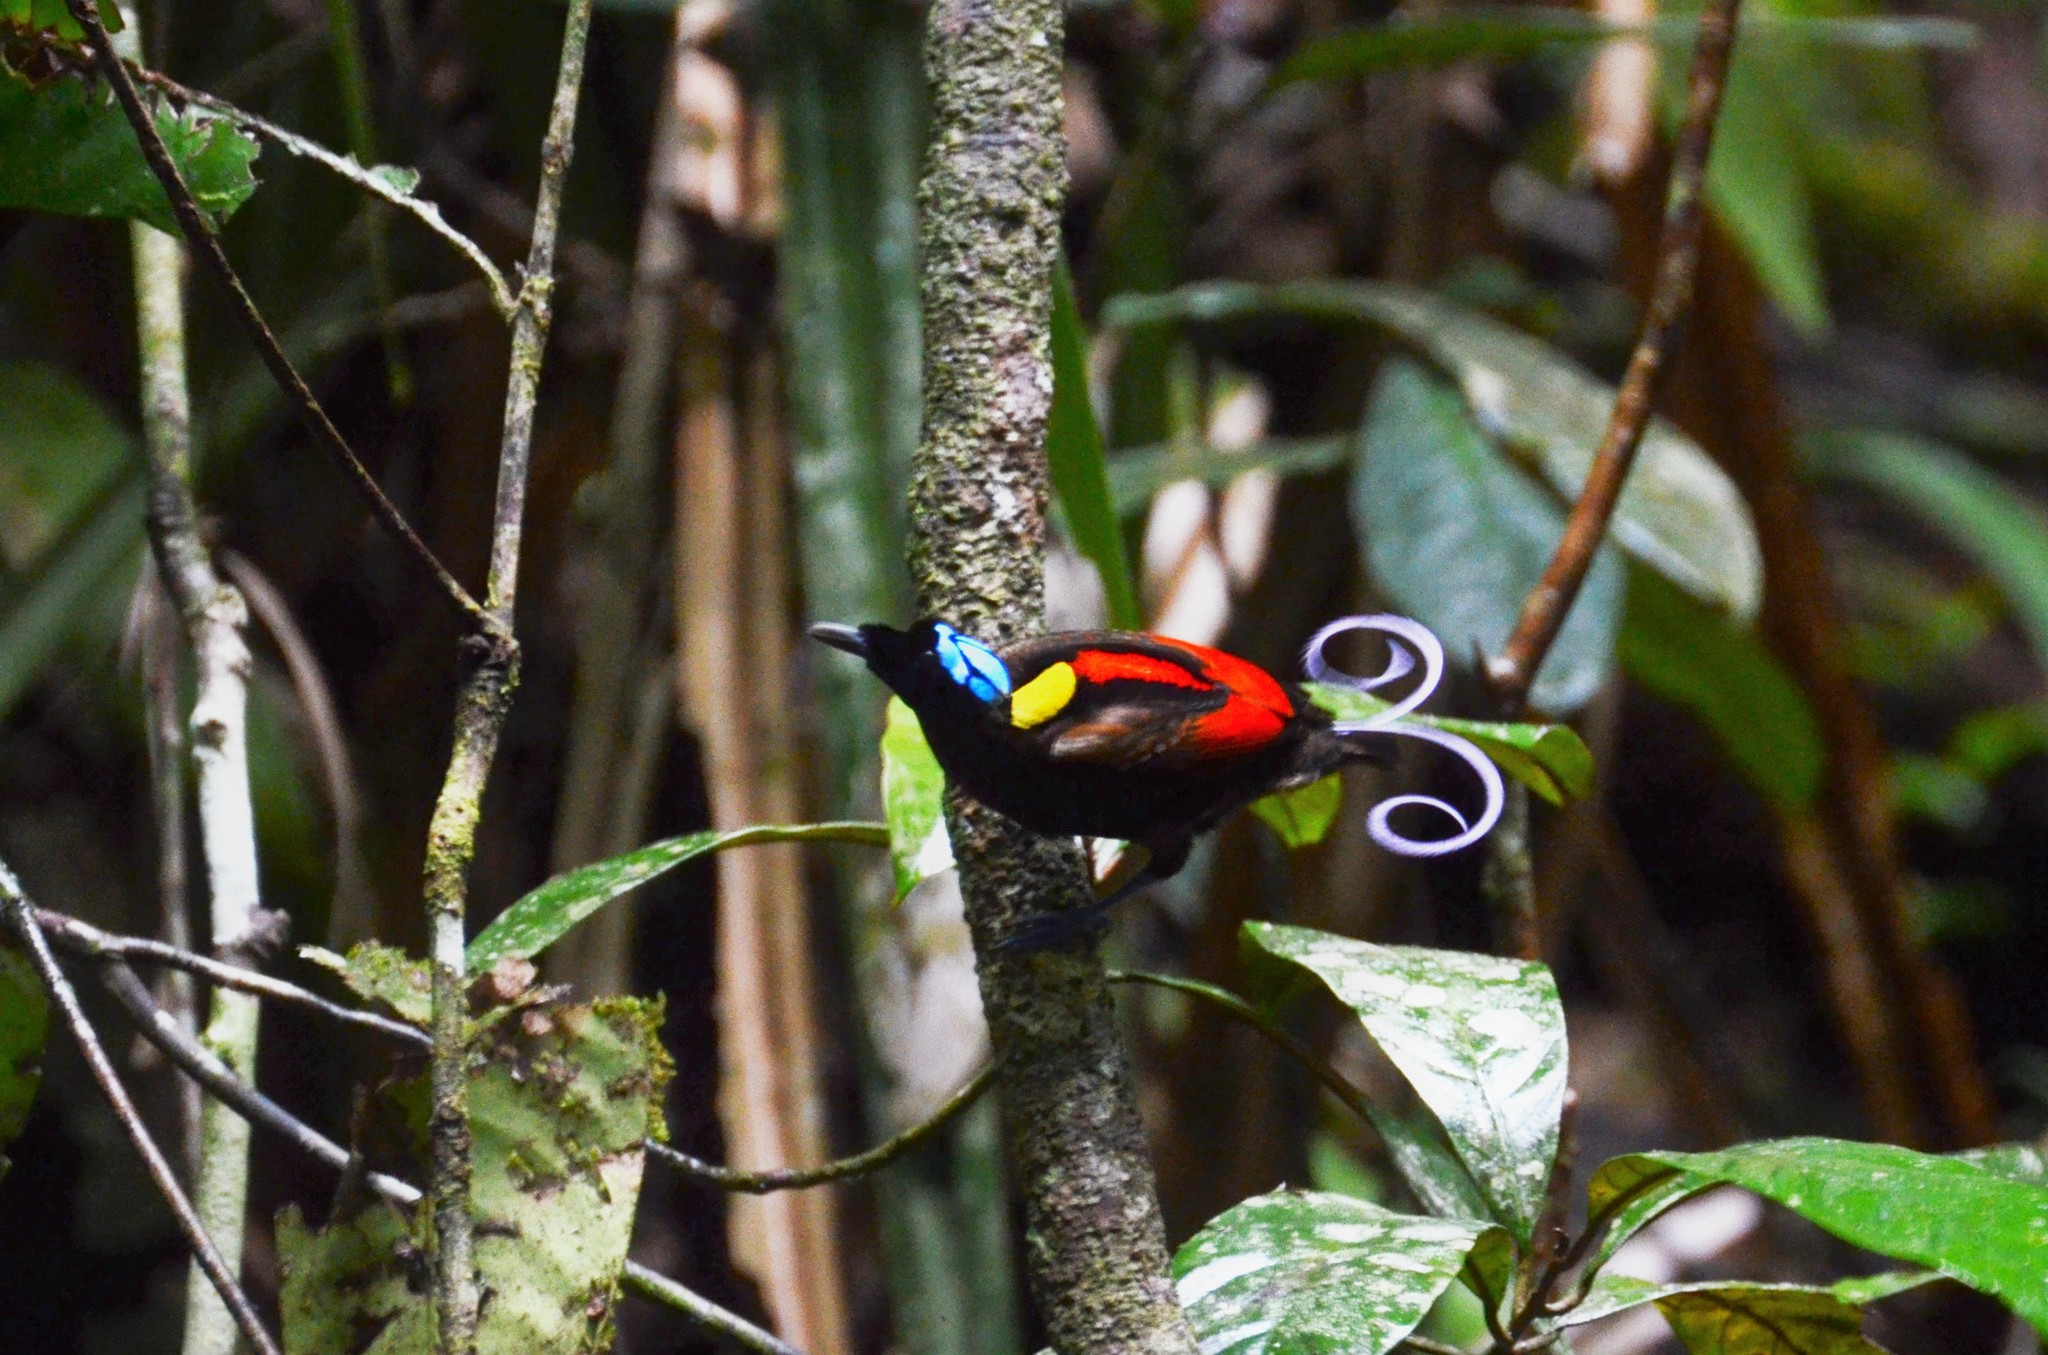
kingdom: Animalia
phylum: Chordata
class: Aves
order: Passeriformes
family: Paradisaeidae
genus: Diphyllodes
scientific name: Diphyllodes respublica
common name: Wilson's bird-of-paradise
